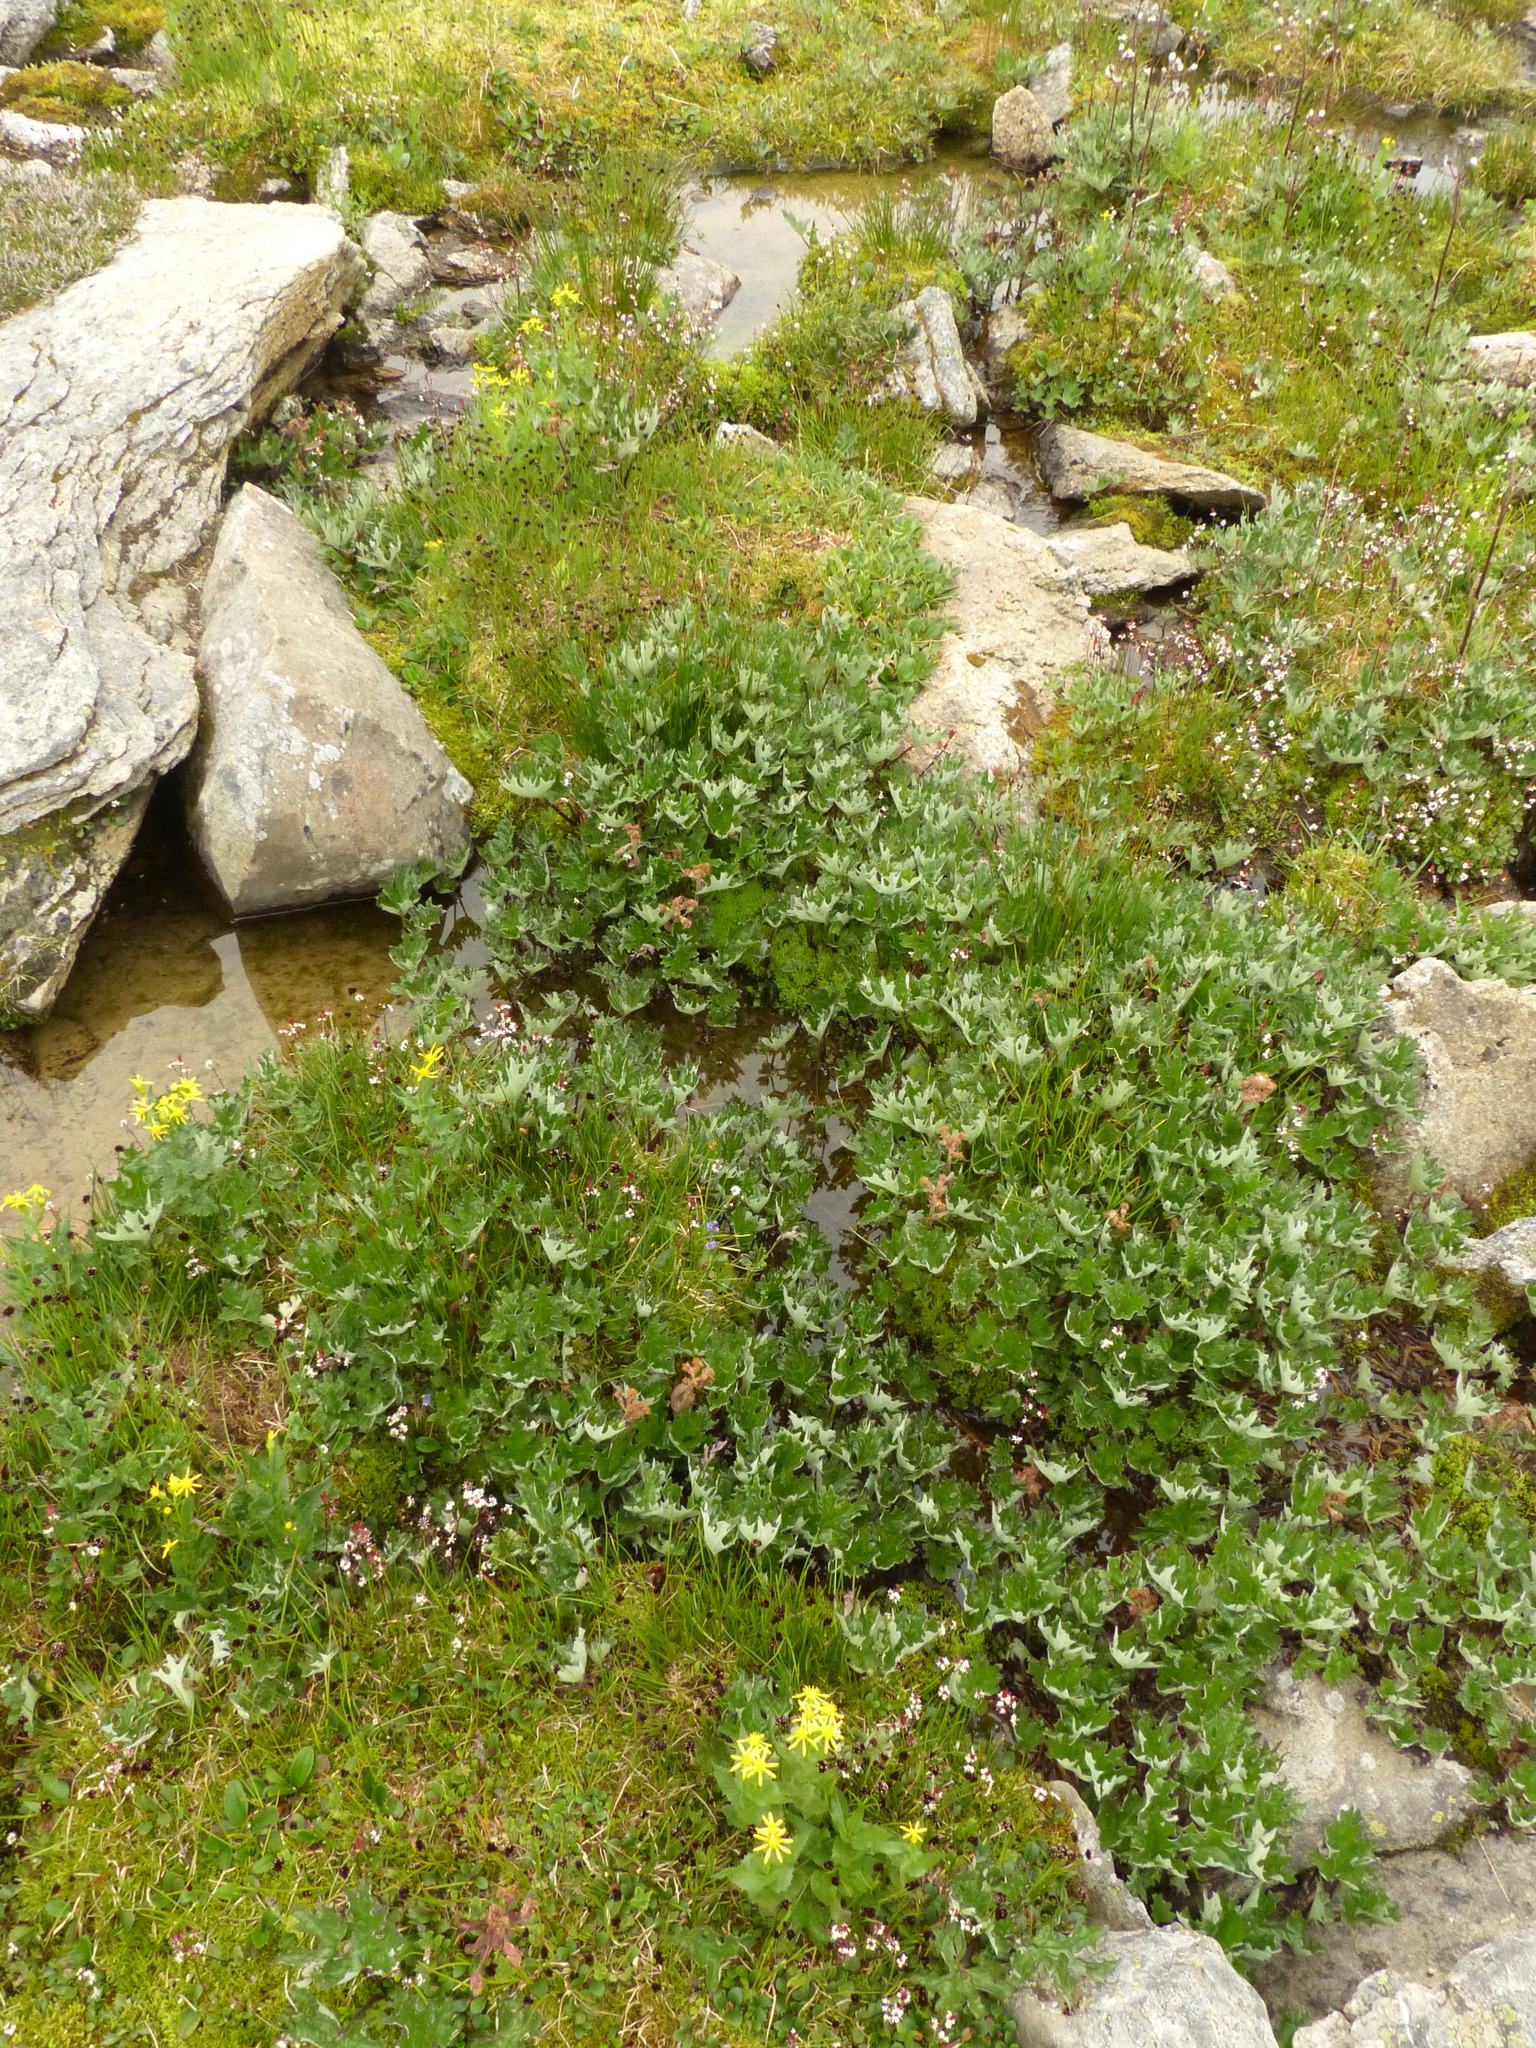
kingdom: Plantae
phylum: Tracheophyta
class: Magnoliopsida
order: Asterales
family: Asteraceae
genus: Petasites
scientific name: Petasites frigidus
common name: Arctic butterbur
